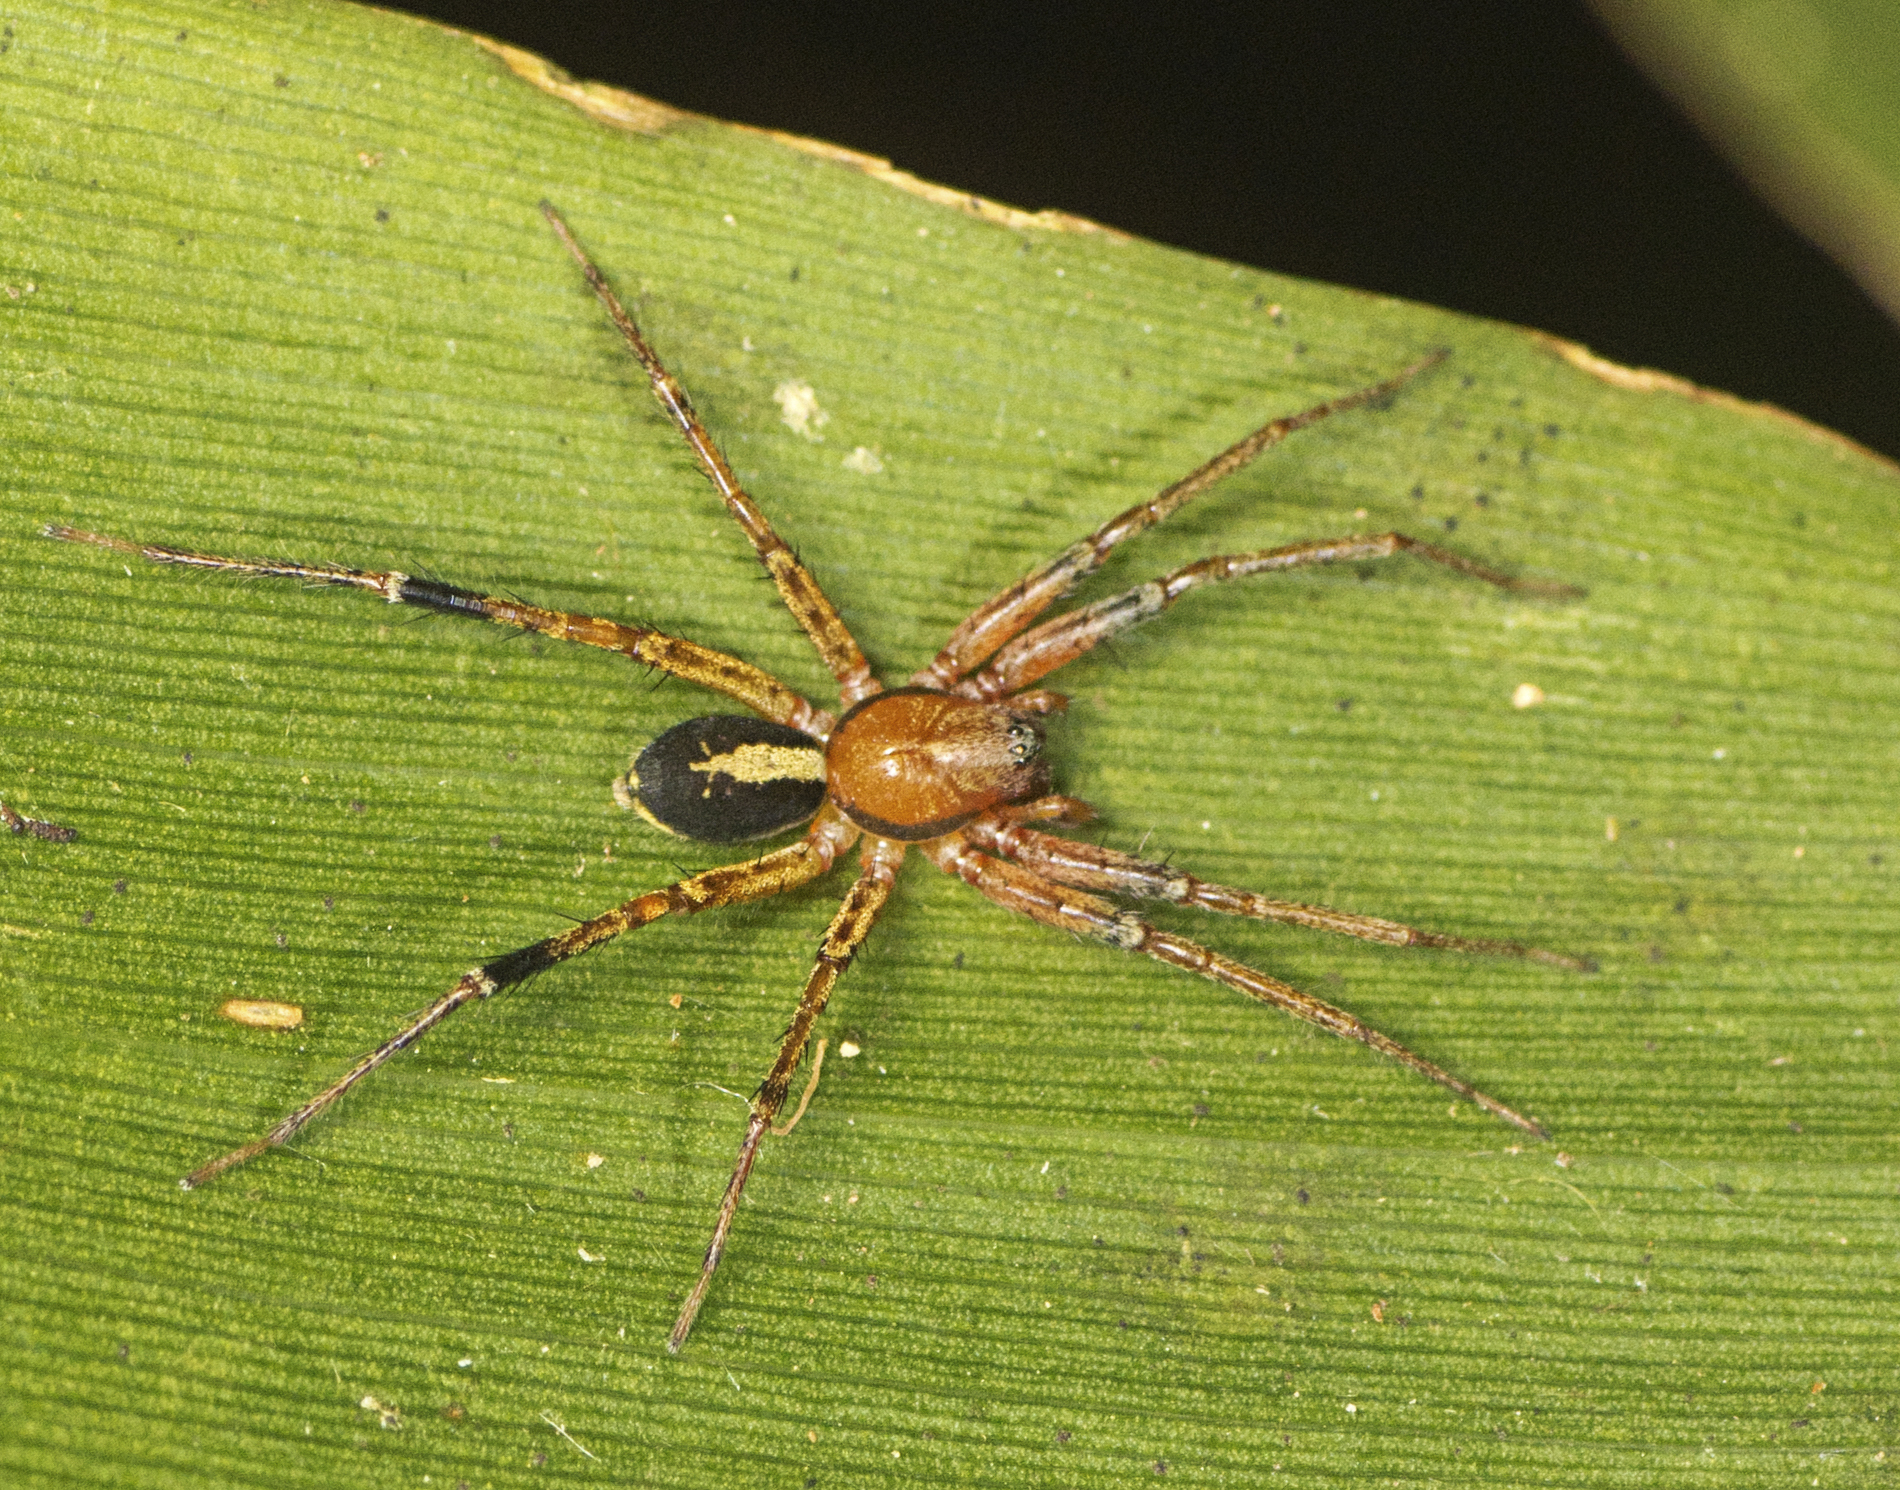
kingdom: Animalia
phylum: Arthropoda
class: Arachnida
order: Araneae
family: Corinnidae
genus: Copa
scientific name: Copa kabana
